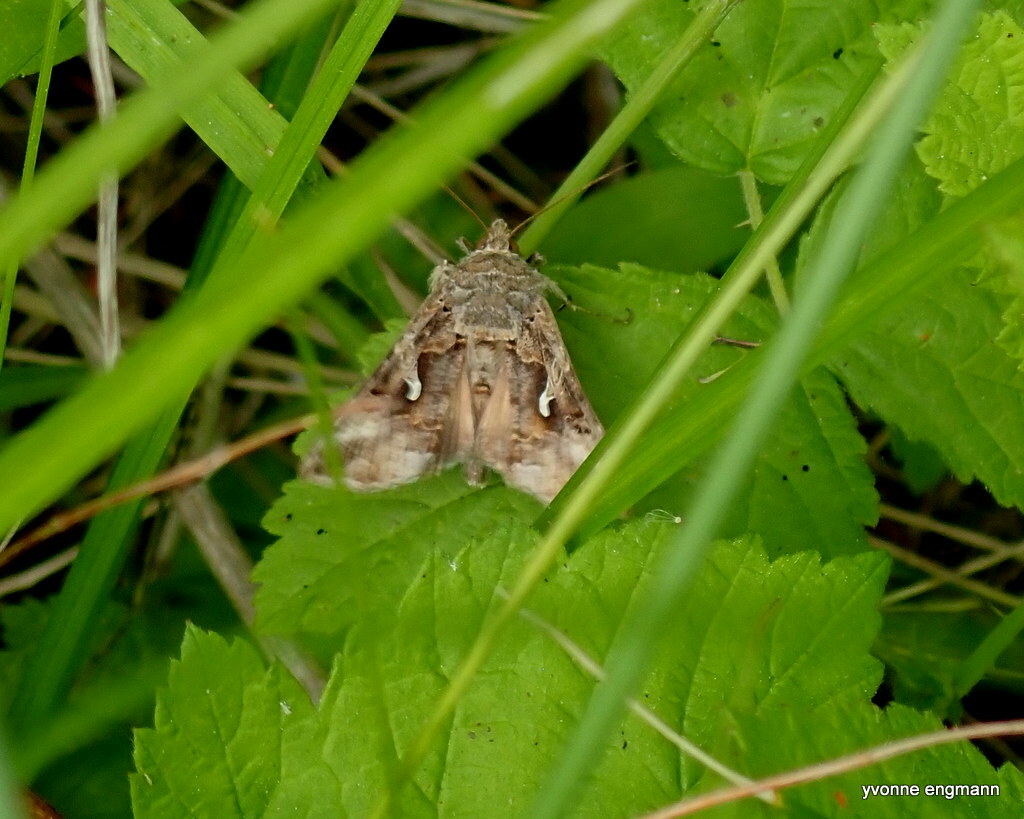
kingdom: Animalia
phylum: Arthropoda
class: Insecta
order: Lepidoptera
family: Noctuidae
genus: Autographa
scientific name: Autographa gamma
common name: Silver y
